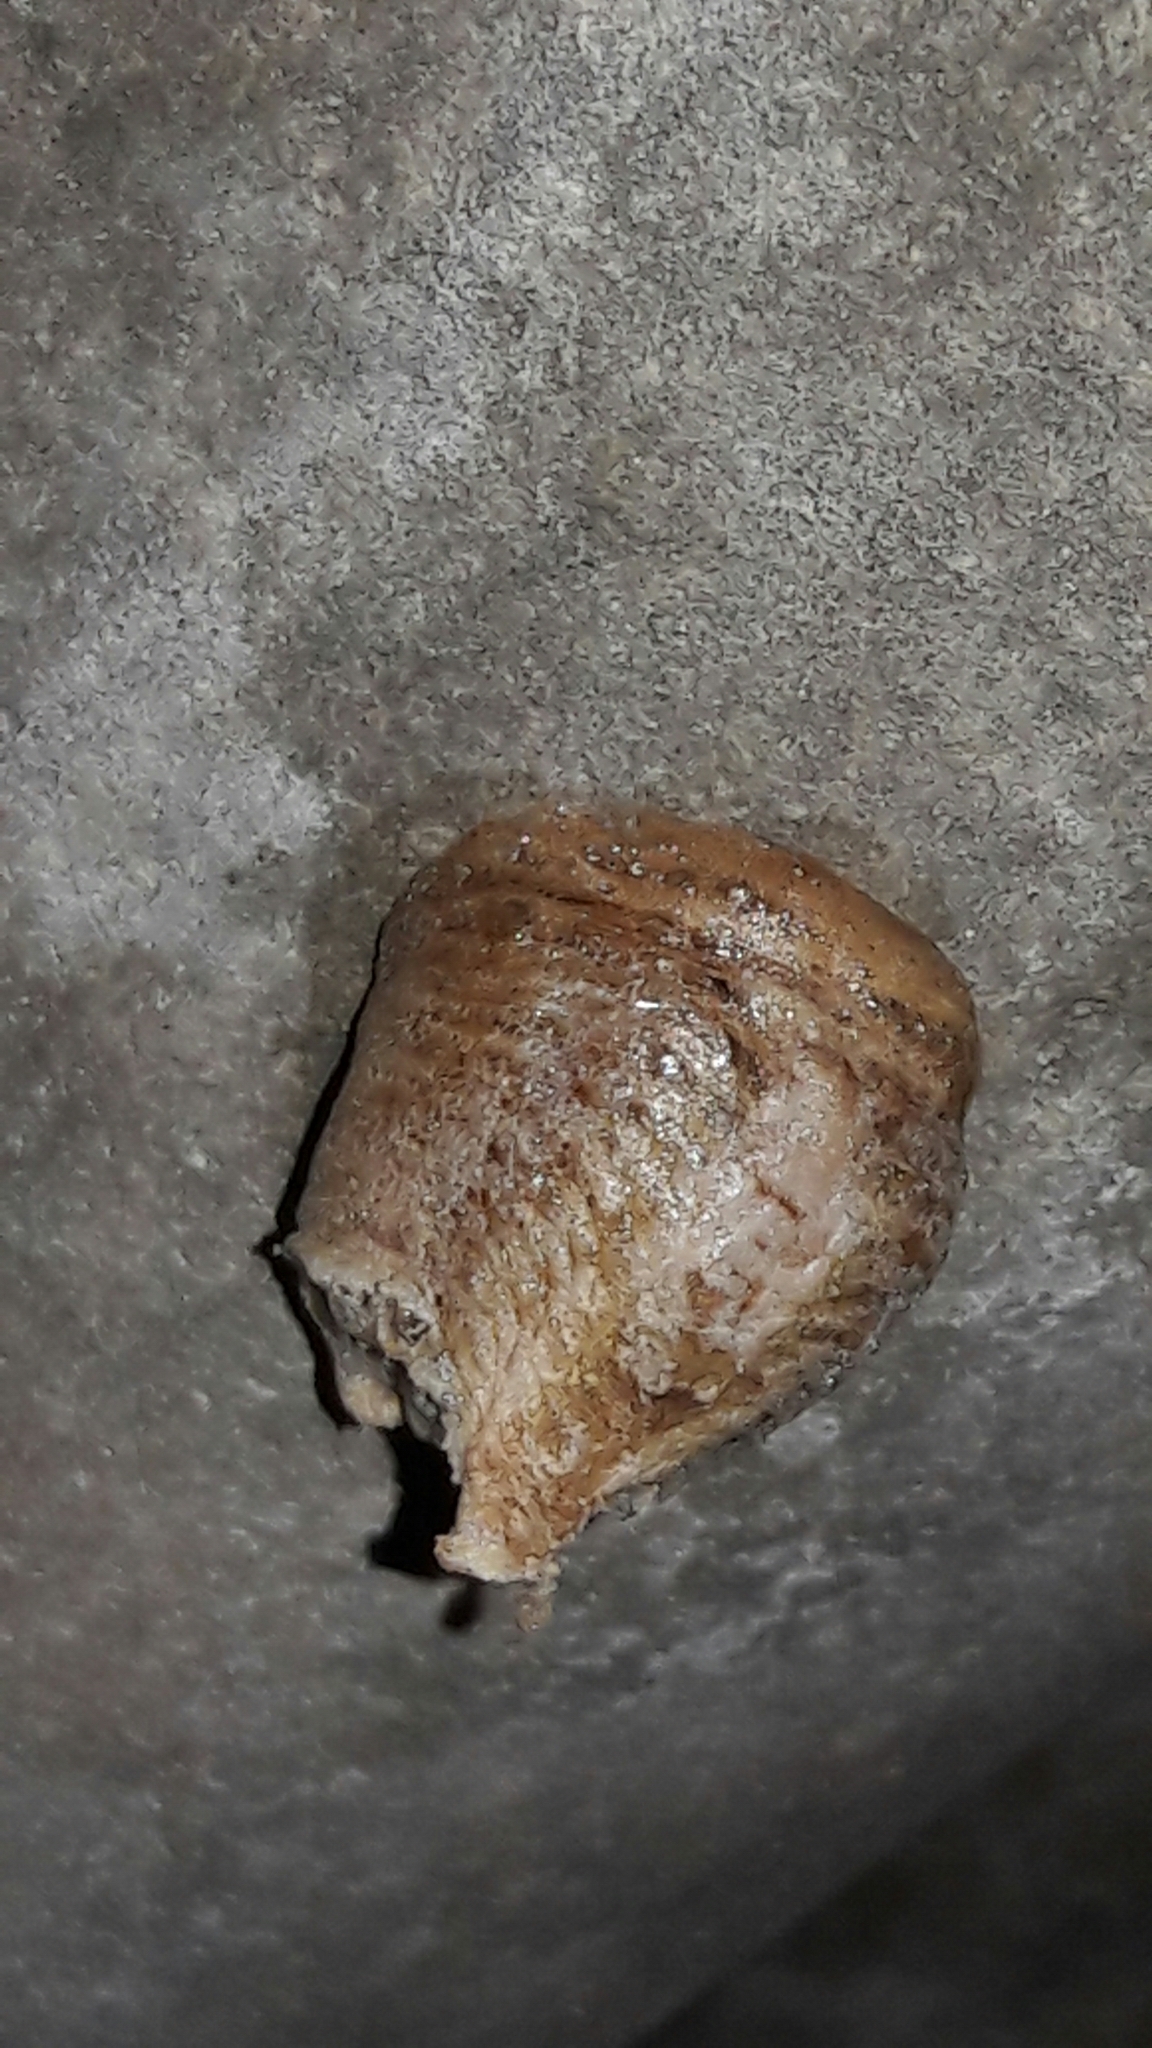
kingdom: Animalia
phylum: Arthropoda
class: Insecta
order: Mantodea
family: Mantidae
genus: Stagmatoptera
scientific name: Stagmatoptera
